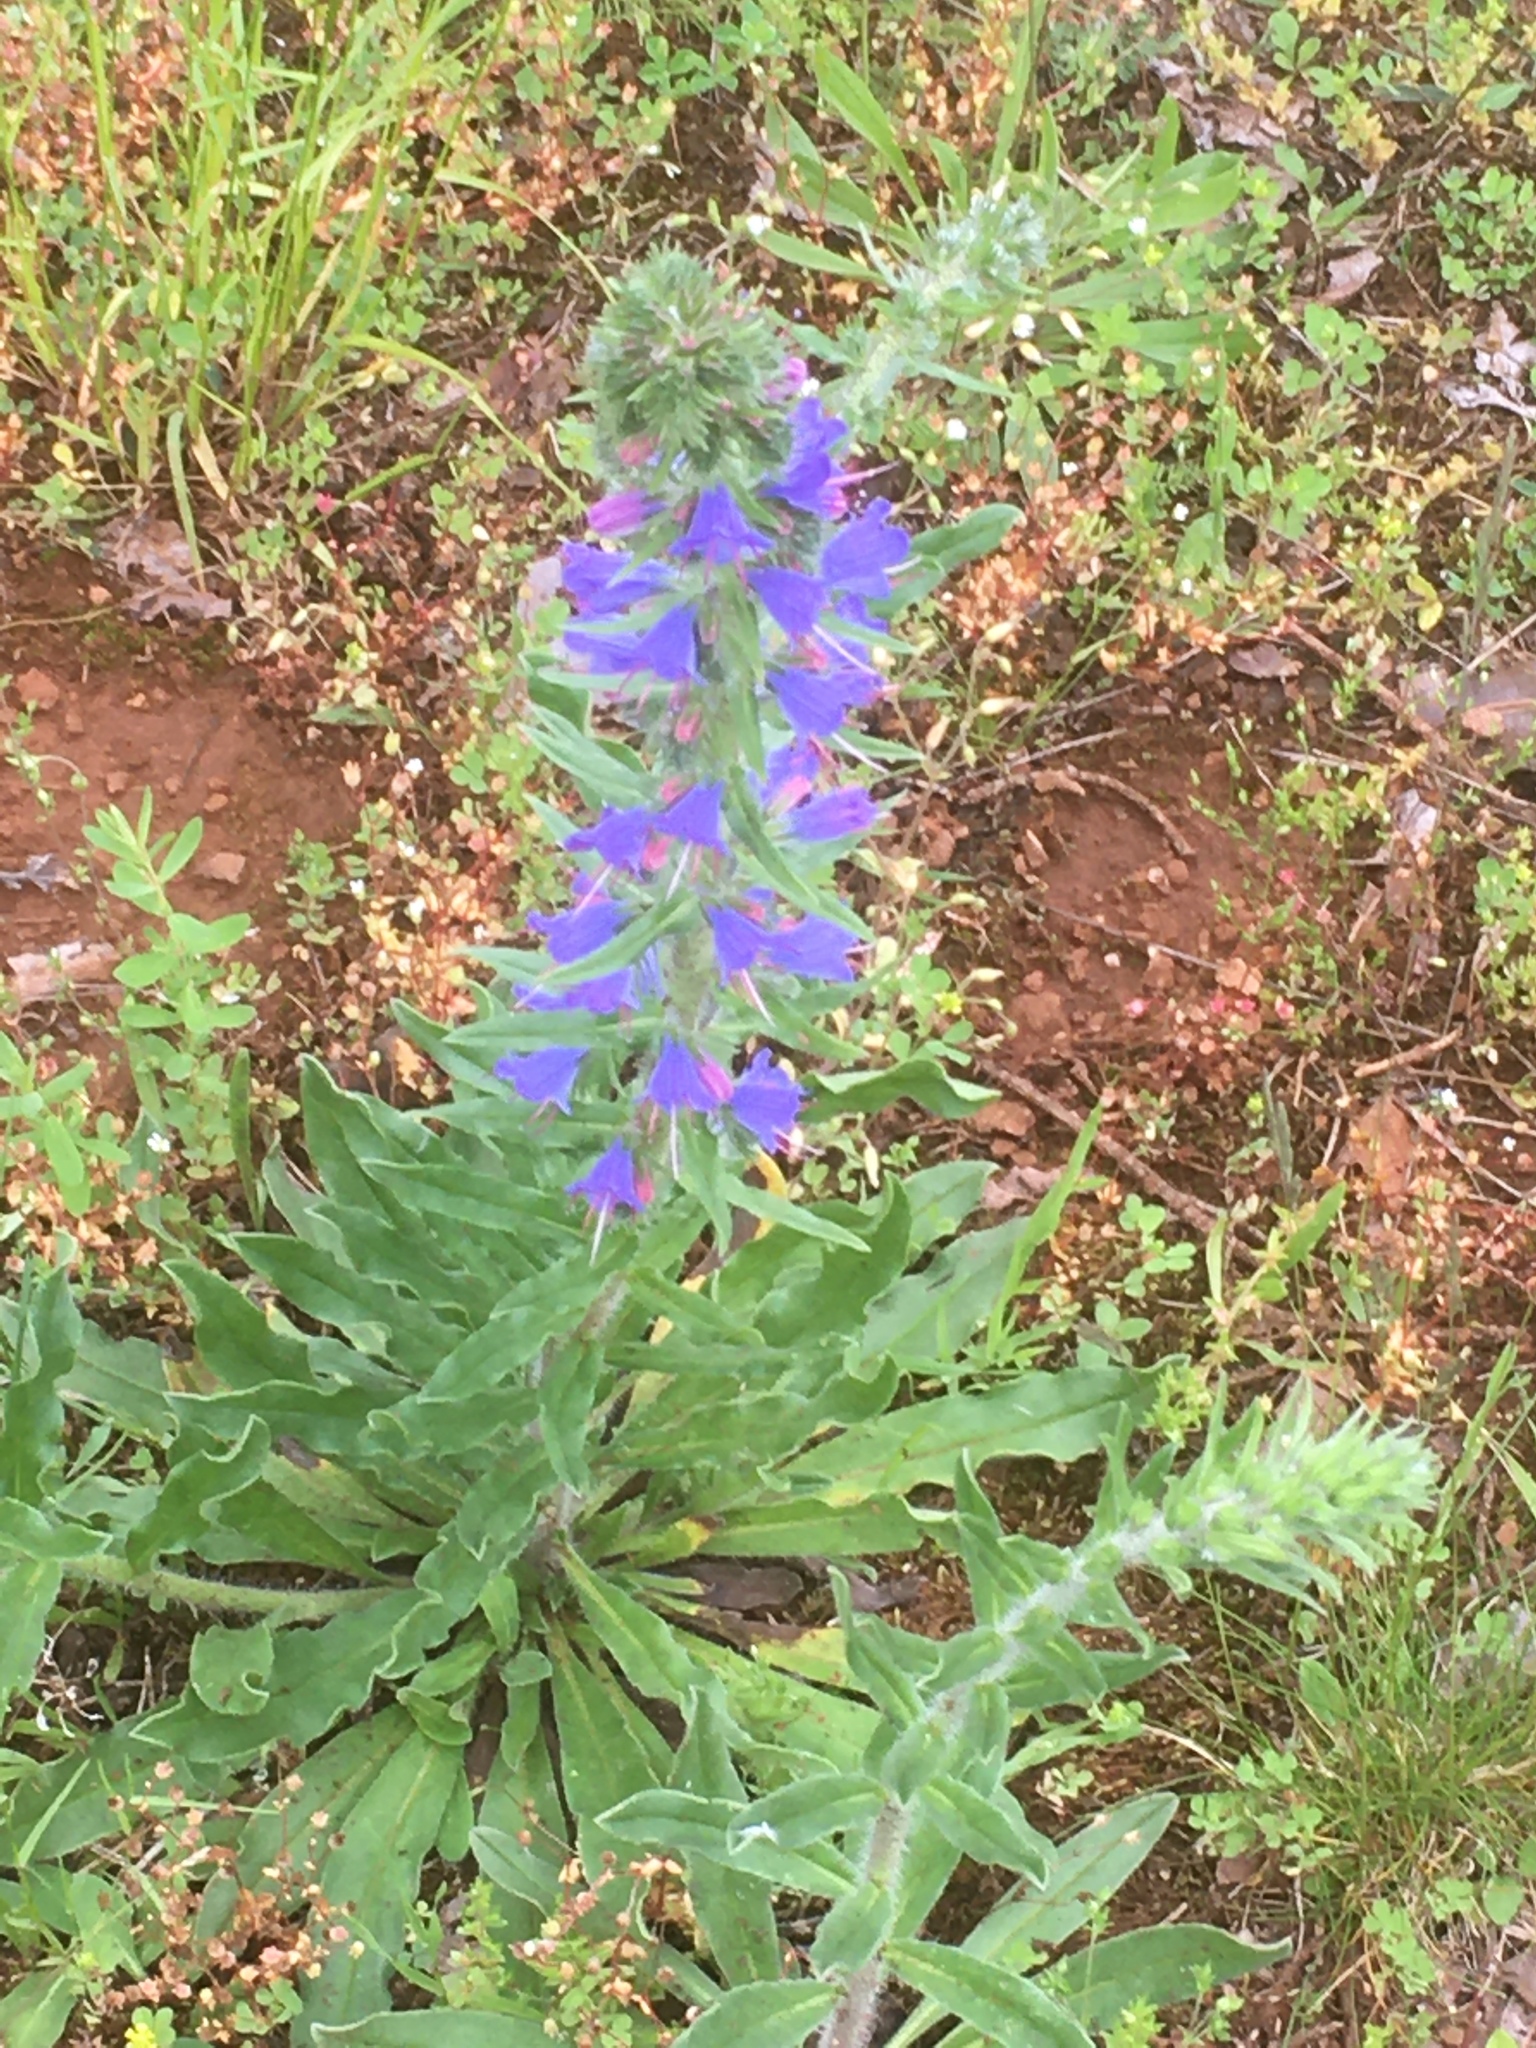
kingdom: Plantae
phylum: Tracheophyta
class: Magnoliopsida
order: Boraginales
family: Boraginaceae
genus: Echium
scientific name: Echium vulgare
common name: Common viper's bugloss
